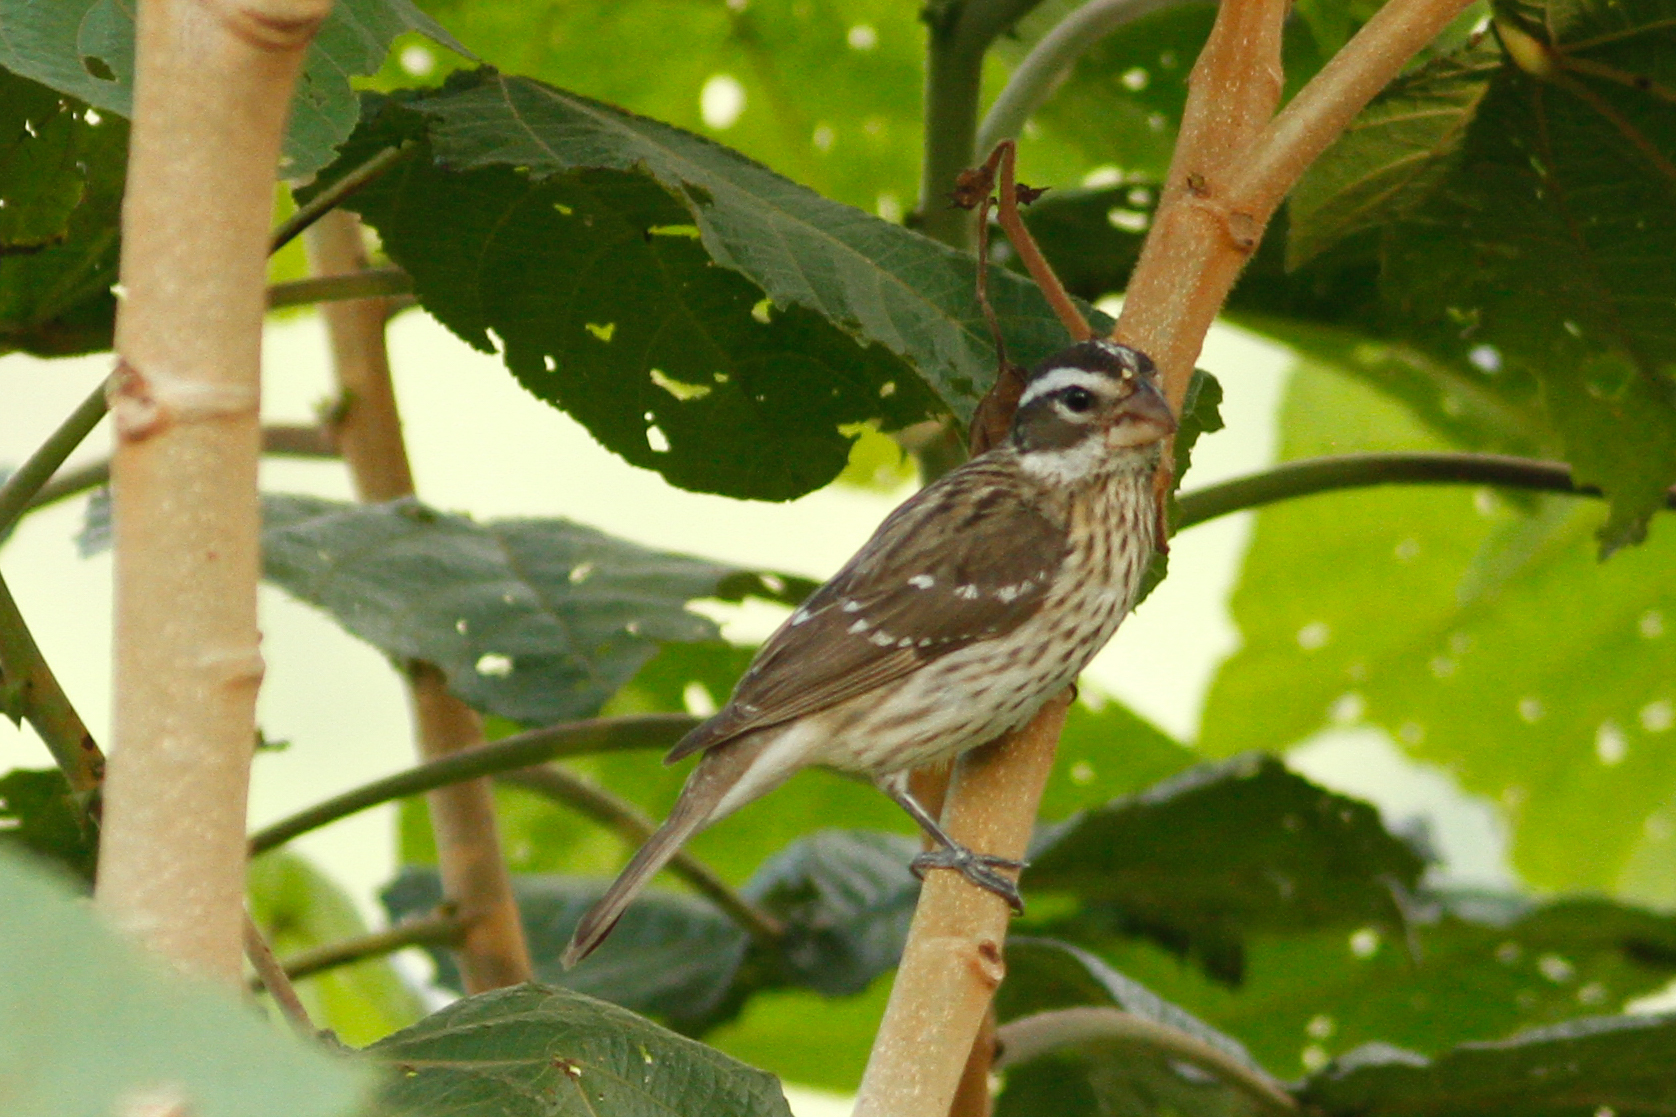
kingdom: Animalia
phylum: Chordata
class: Aves
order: Passeriformes
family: Cardinalidae
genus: Pheucticus
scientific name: Pheucticus ludovicianus
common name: Rose-breasted grosbeak
